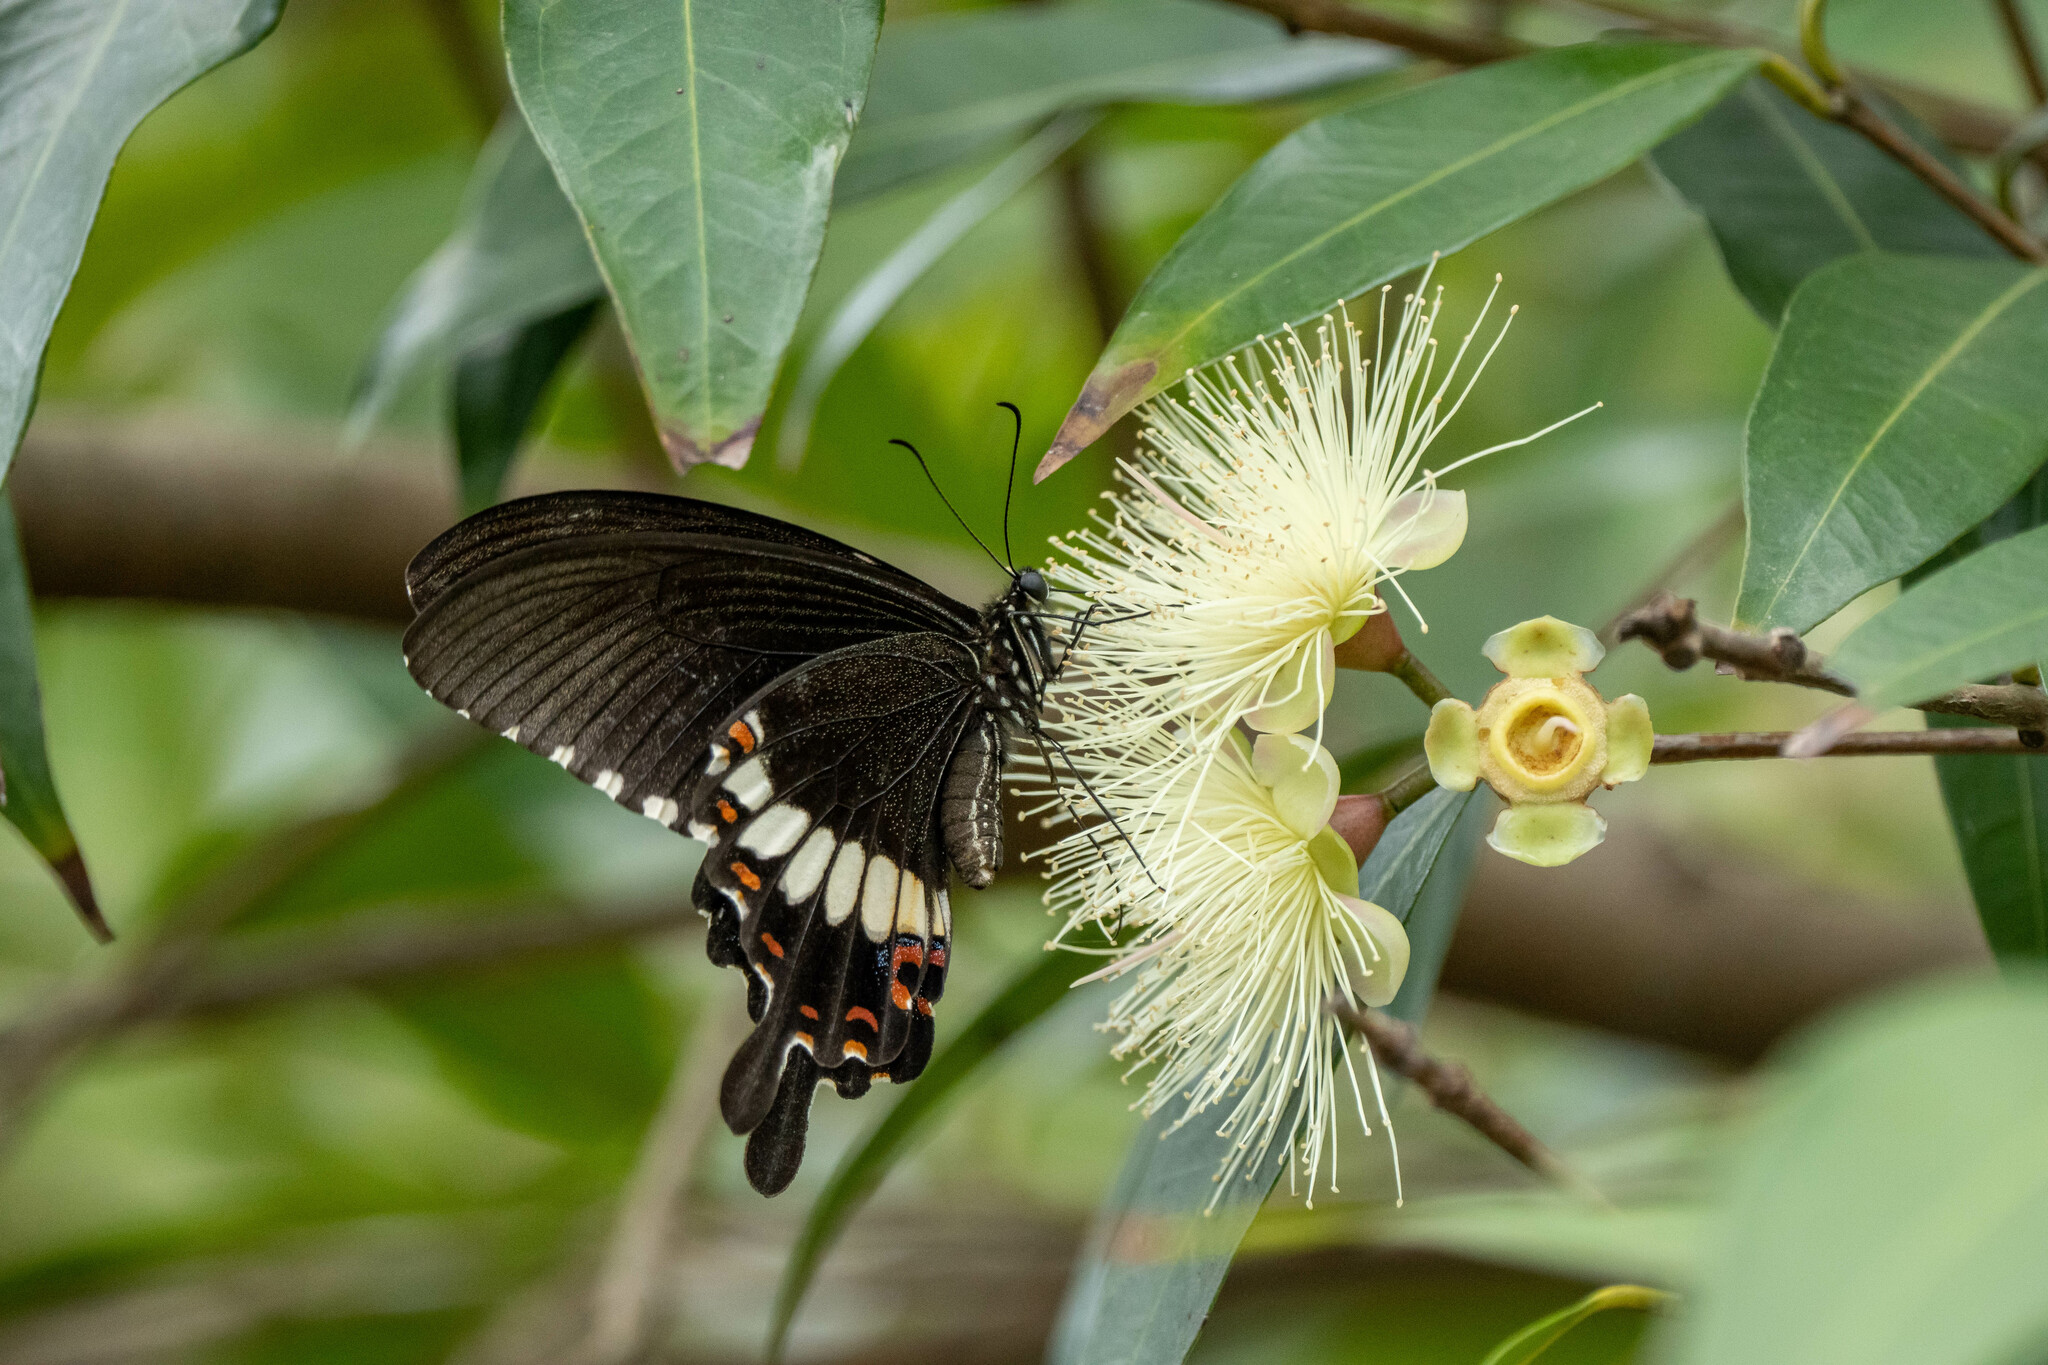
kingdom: Animalia
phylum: Arthropoda
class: Insecta
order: Lepidoptera
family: Papilionidae
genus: Papilio
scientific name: Papilio polytes
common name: Common mormon
